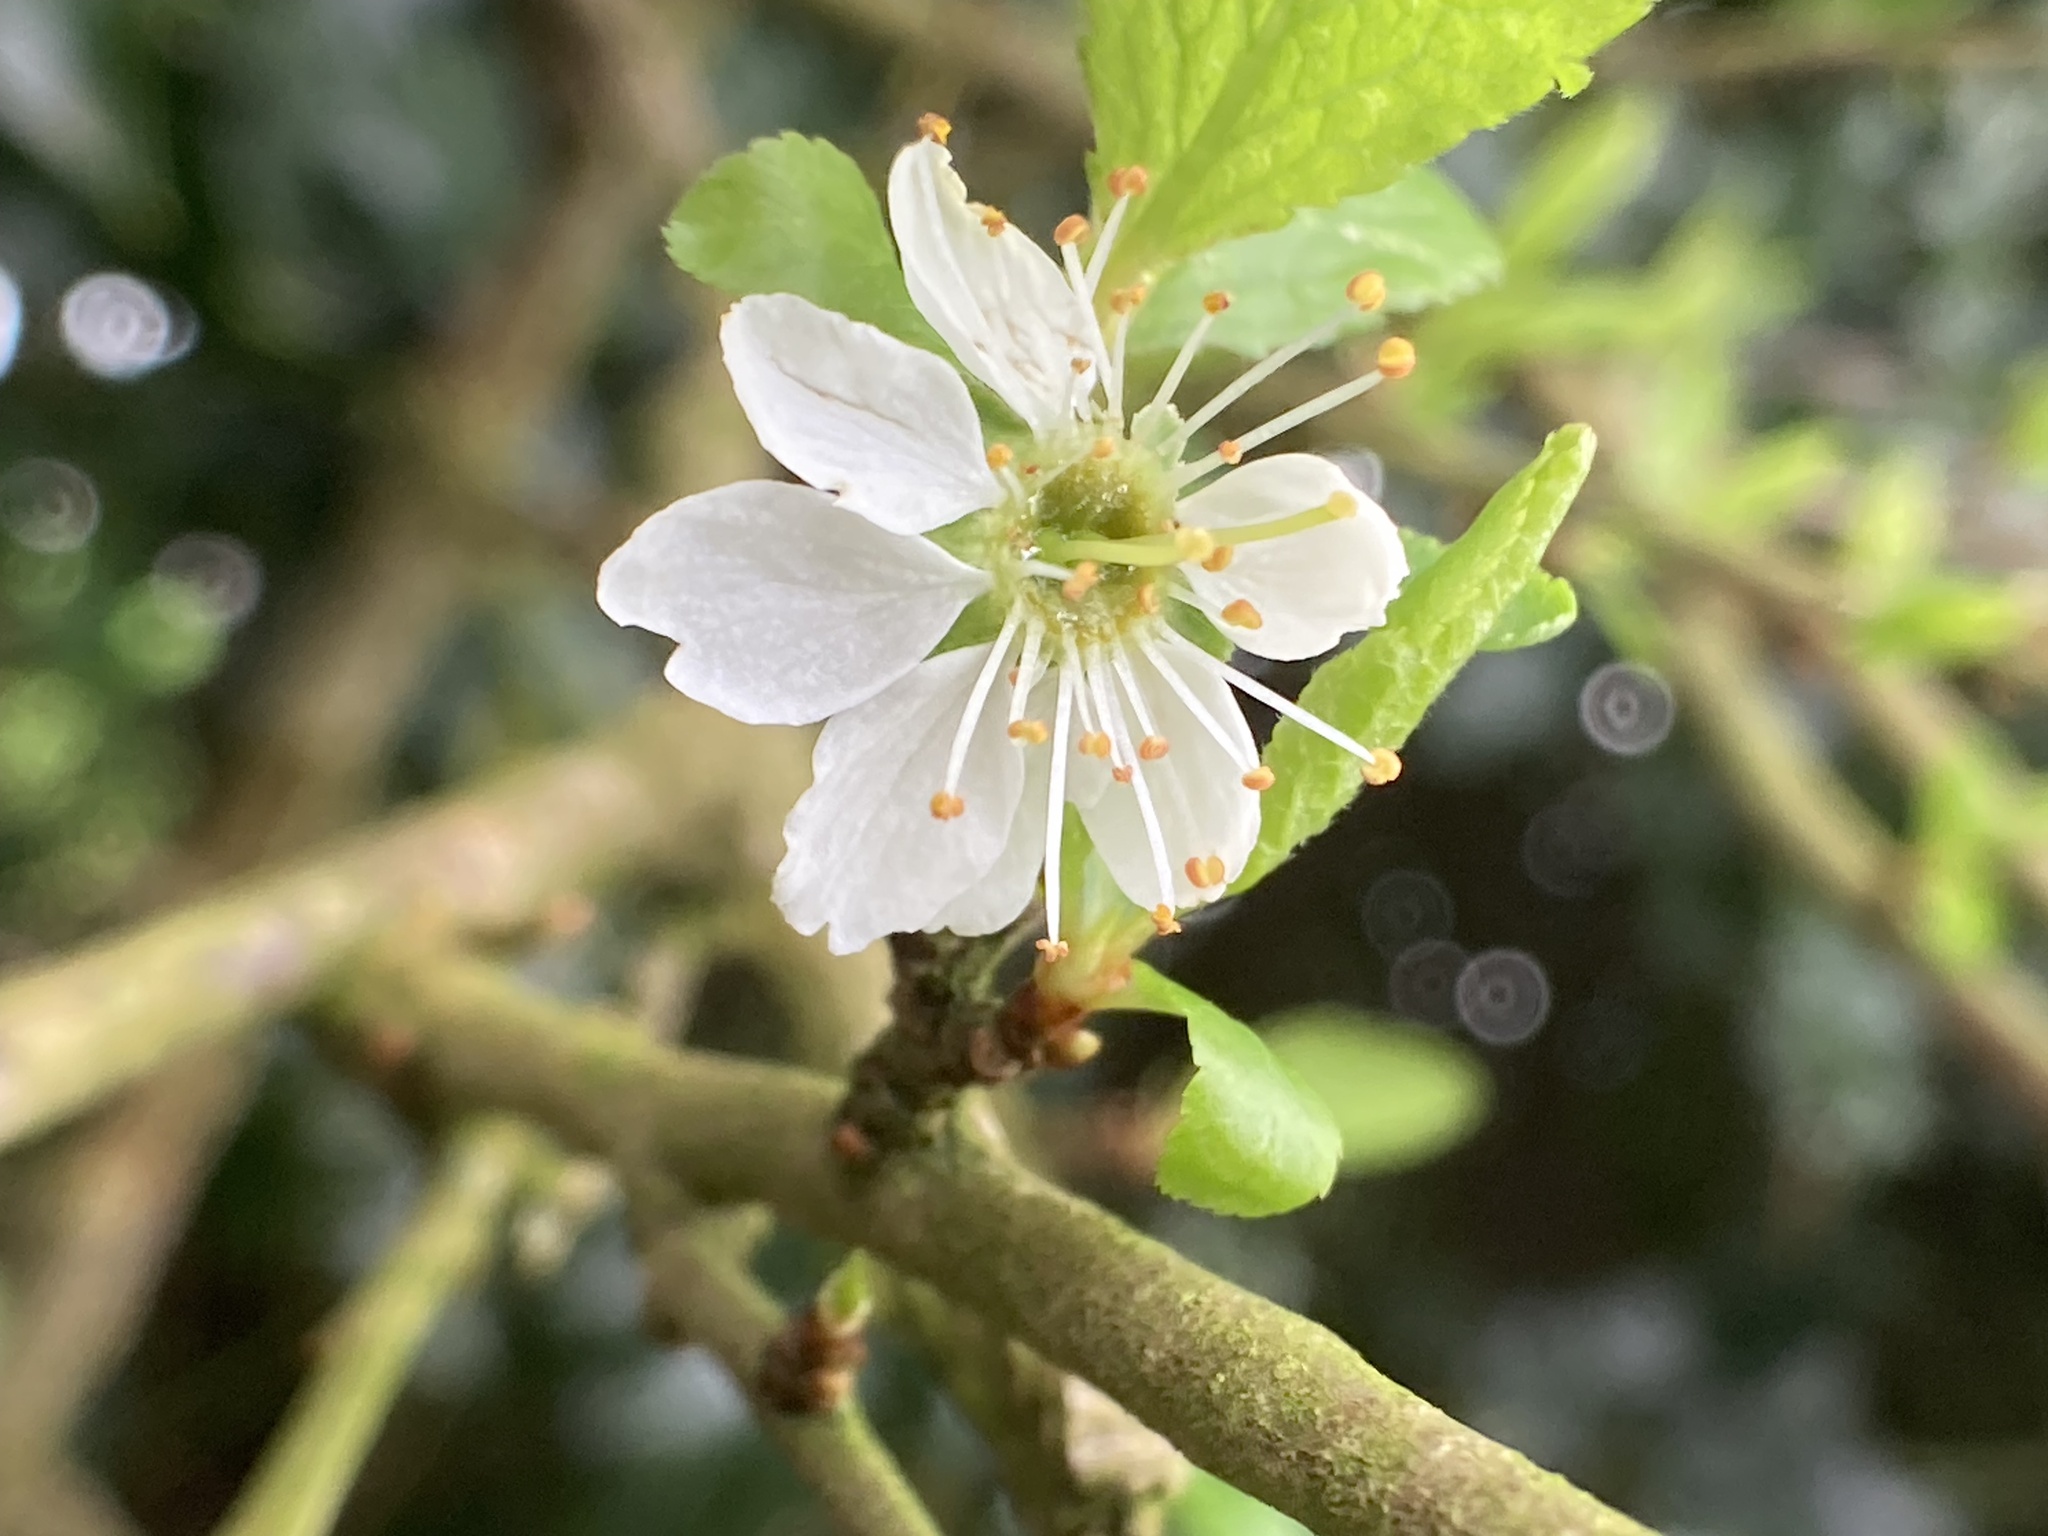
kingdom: Plantae
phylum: Tracheophyta
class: Magnoliopsida
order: Rosales
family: Rosaceae
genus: Prunus
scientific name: Prunus spinosa
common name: Blackthorn
